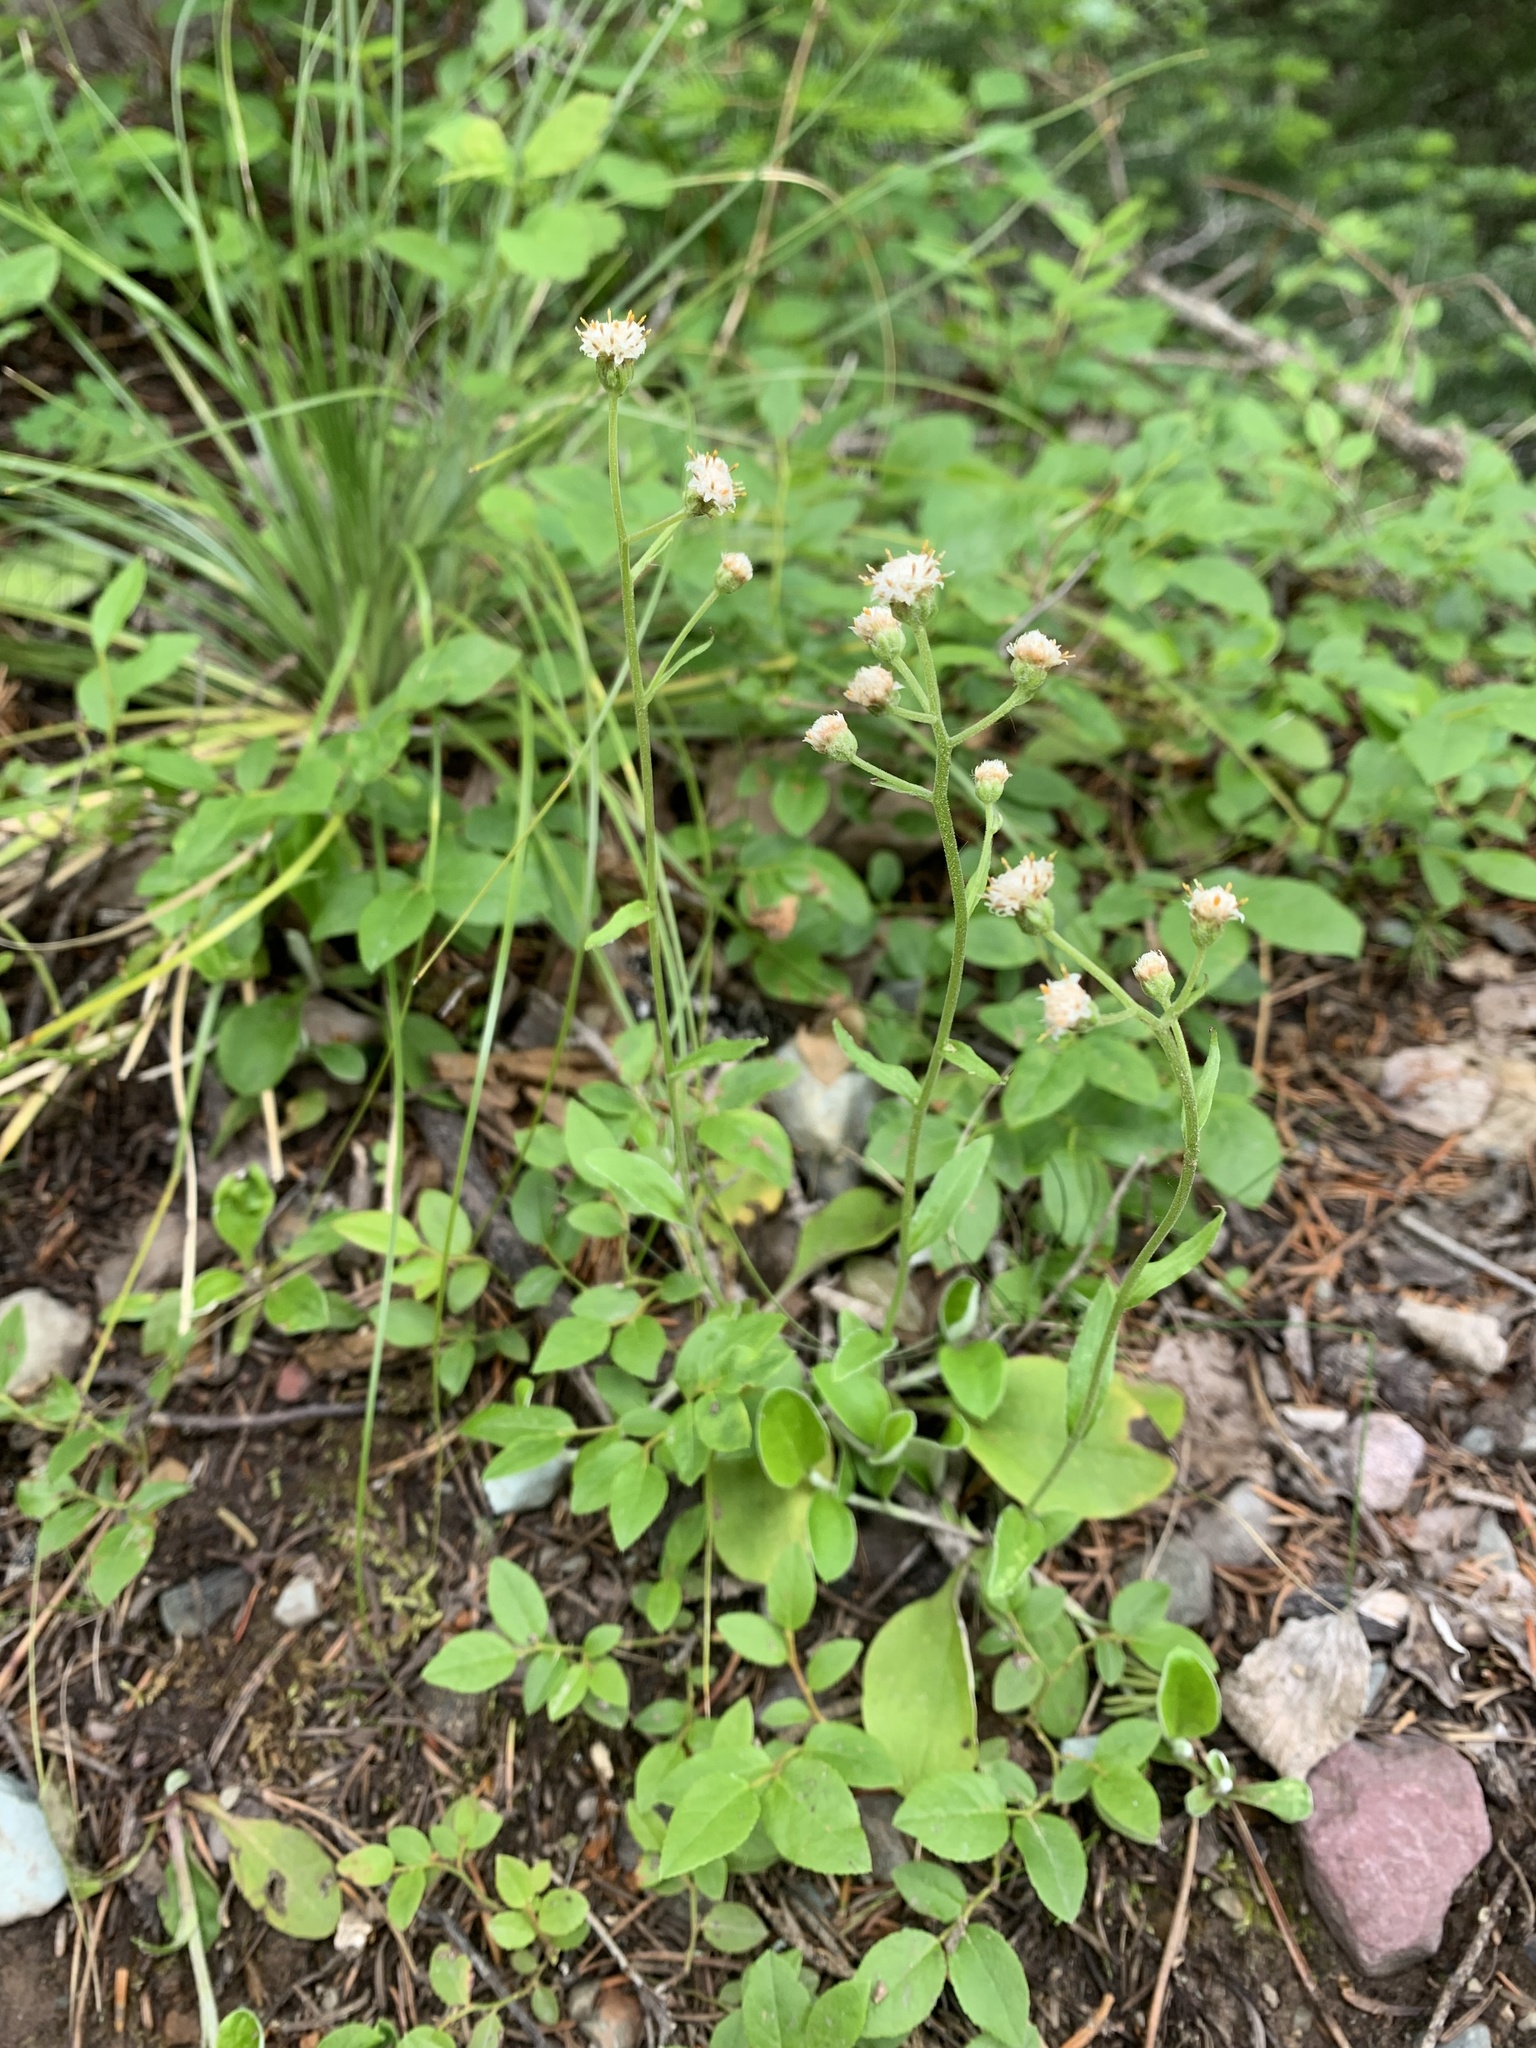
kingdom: Plantae
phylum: Tracheophyta
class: Magnoliopsida
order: Asterales
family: Asteraceae
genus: Antennaria
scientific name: Antennaria racemosa
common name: Racemose pussytoes
